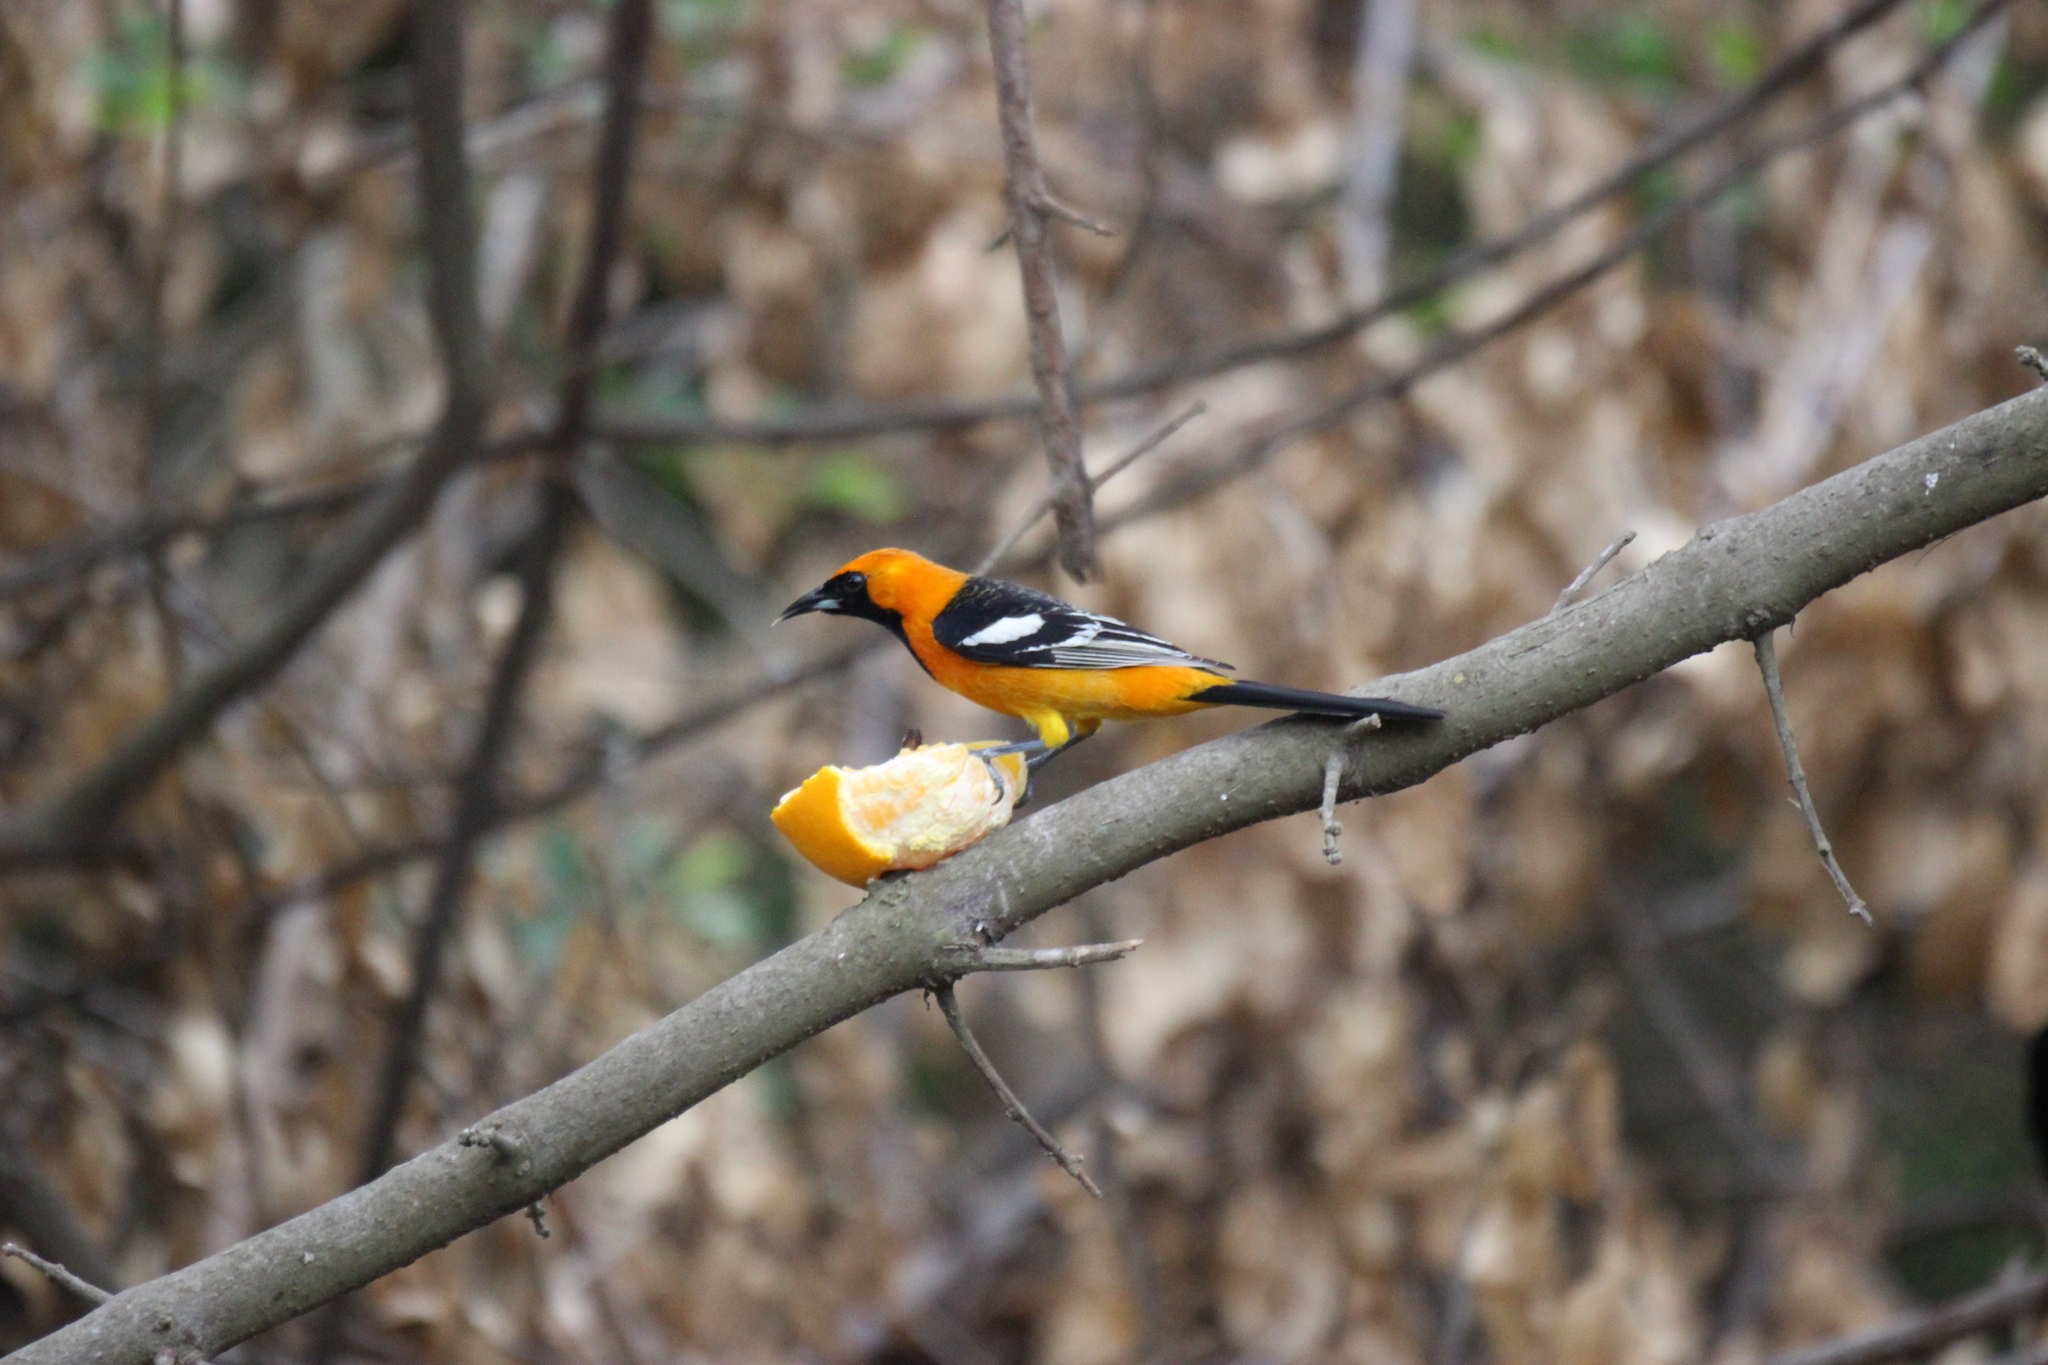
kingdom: Animalia
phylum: Chordata
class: Aves
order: Passeriformes
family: Icteridae
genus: Icterus
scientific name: Icterus cucullatus
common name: Hooded oriole
